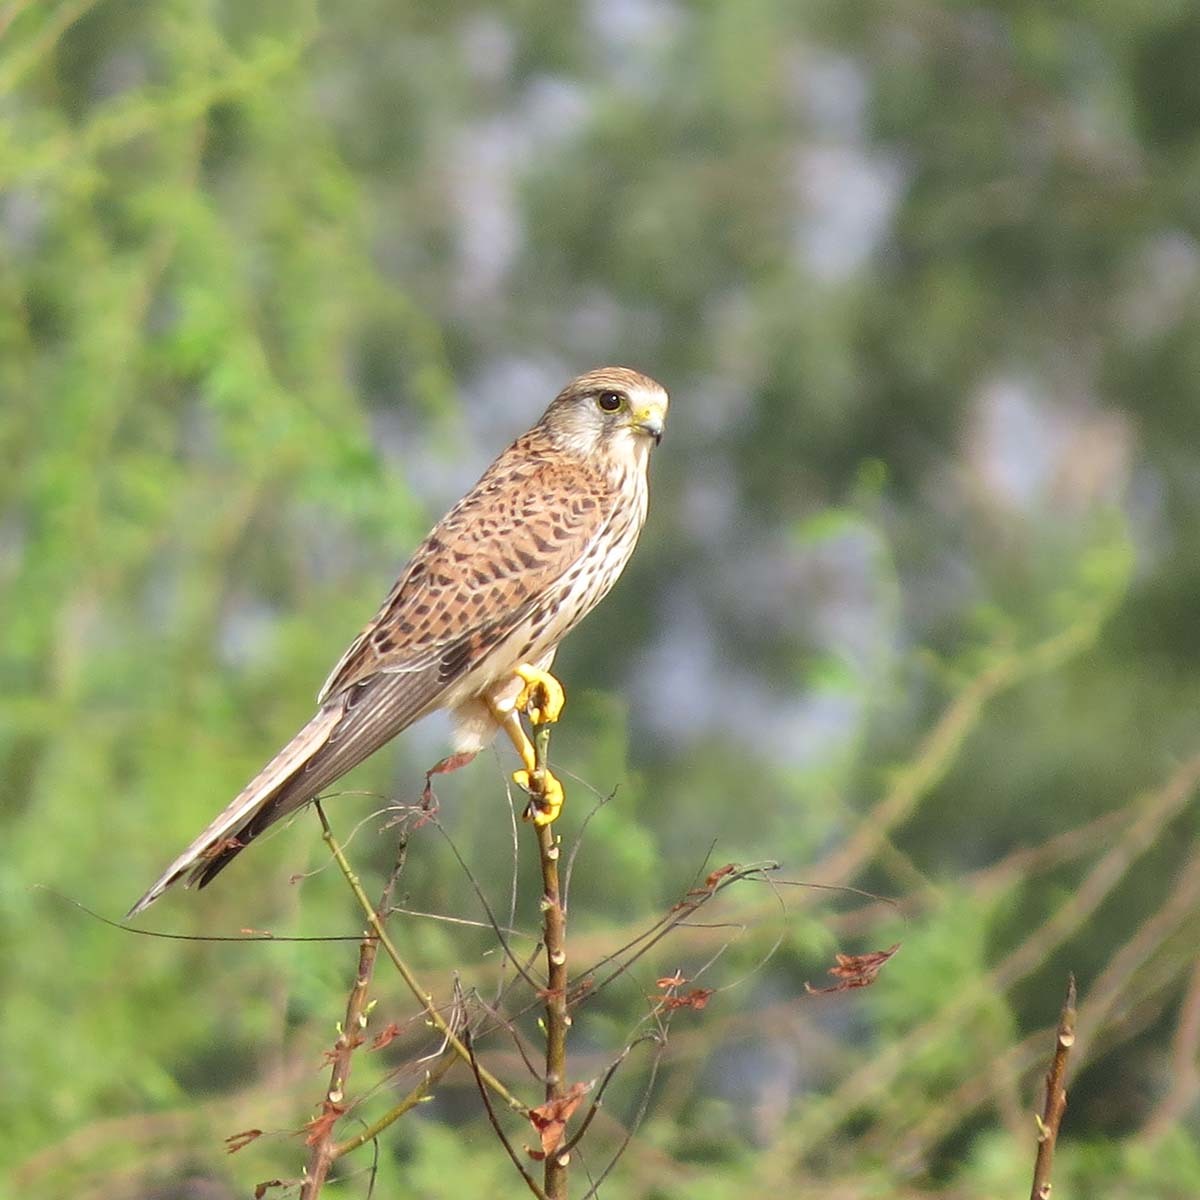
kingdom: Animalia
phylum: Chordata
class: Aves
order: Falconiformes
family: Falconidae
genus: Falco
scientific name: Falco tinnunculus
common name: Common kestrel
